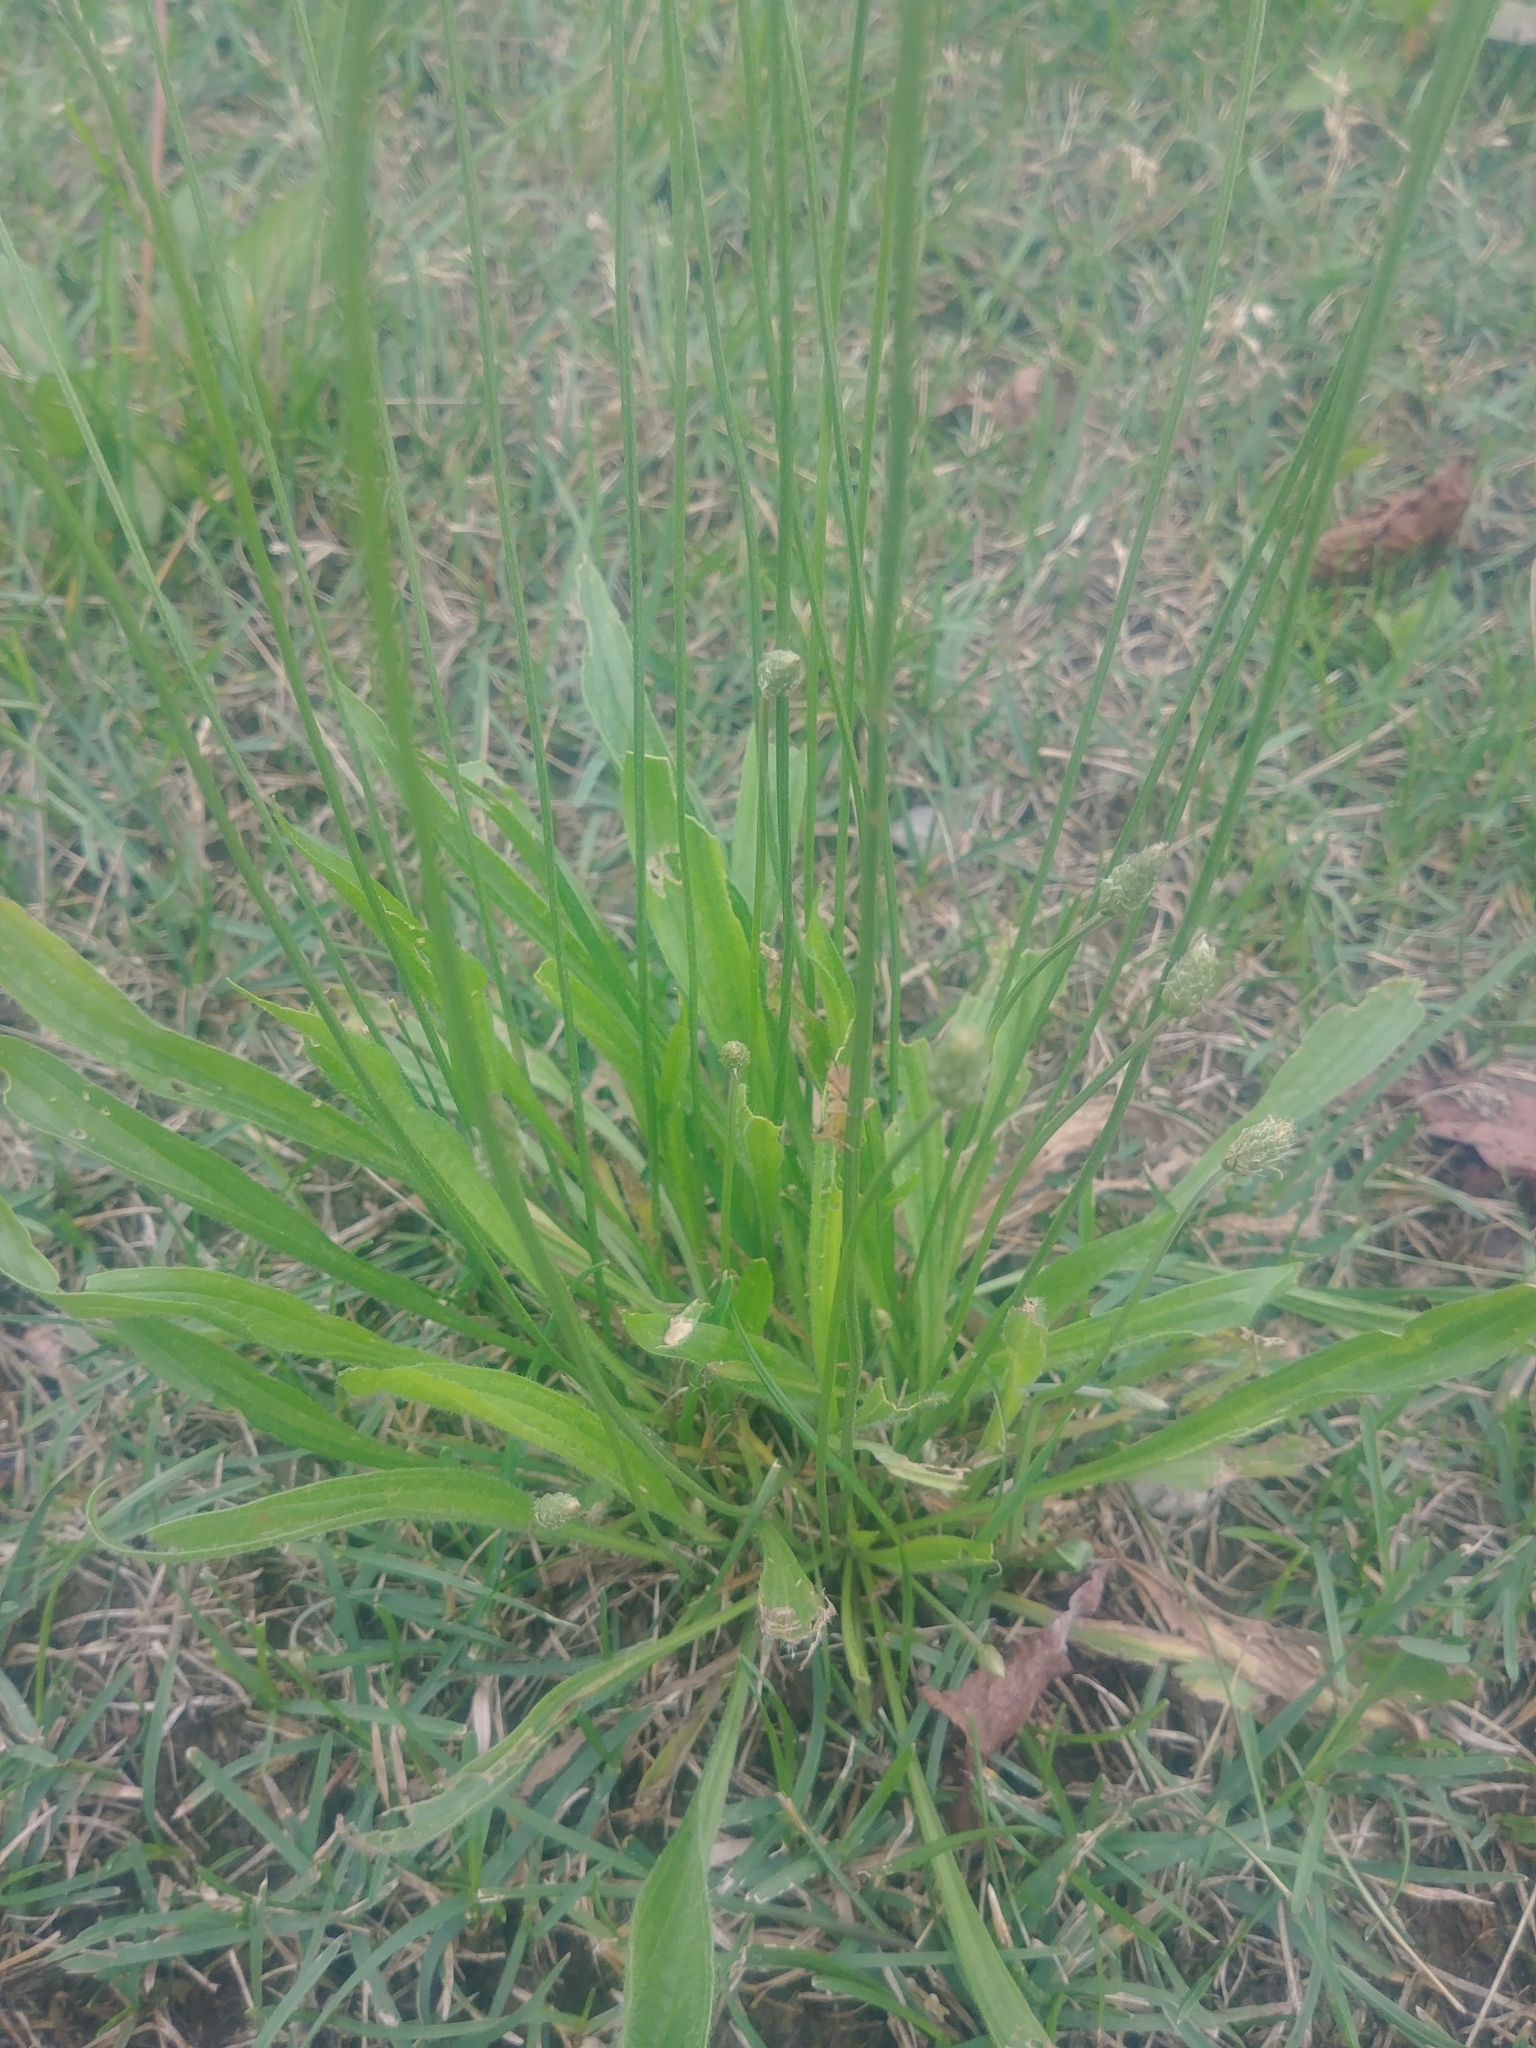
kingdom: Plantae
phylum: Tracheophyta
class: Magnoliopsida
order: Lamiales
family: Plantaginaceae
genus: Plantago
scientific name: Plantago lanceolata
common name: Ribwort plantain
